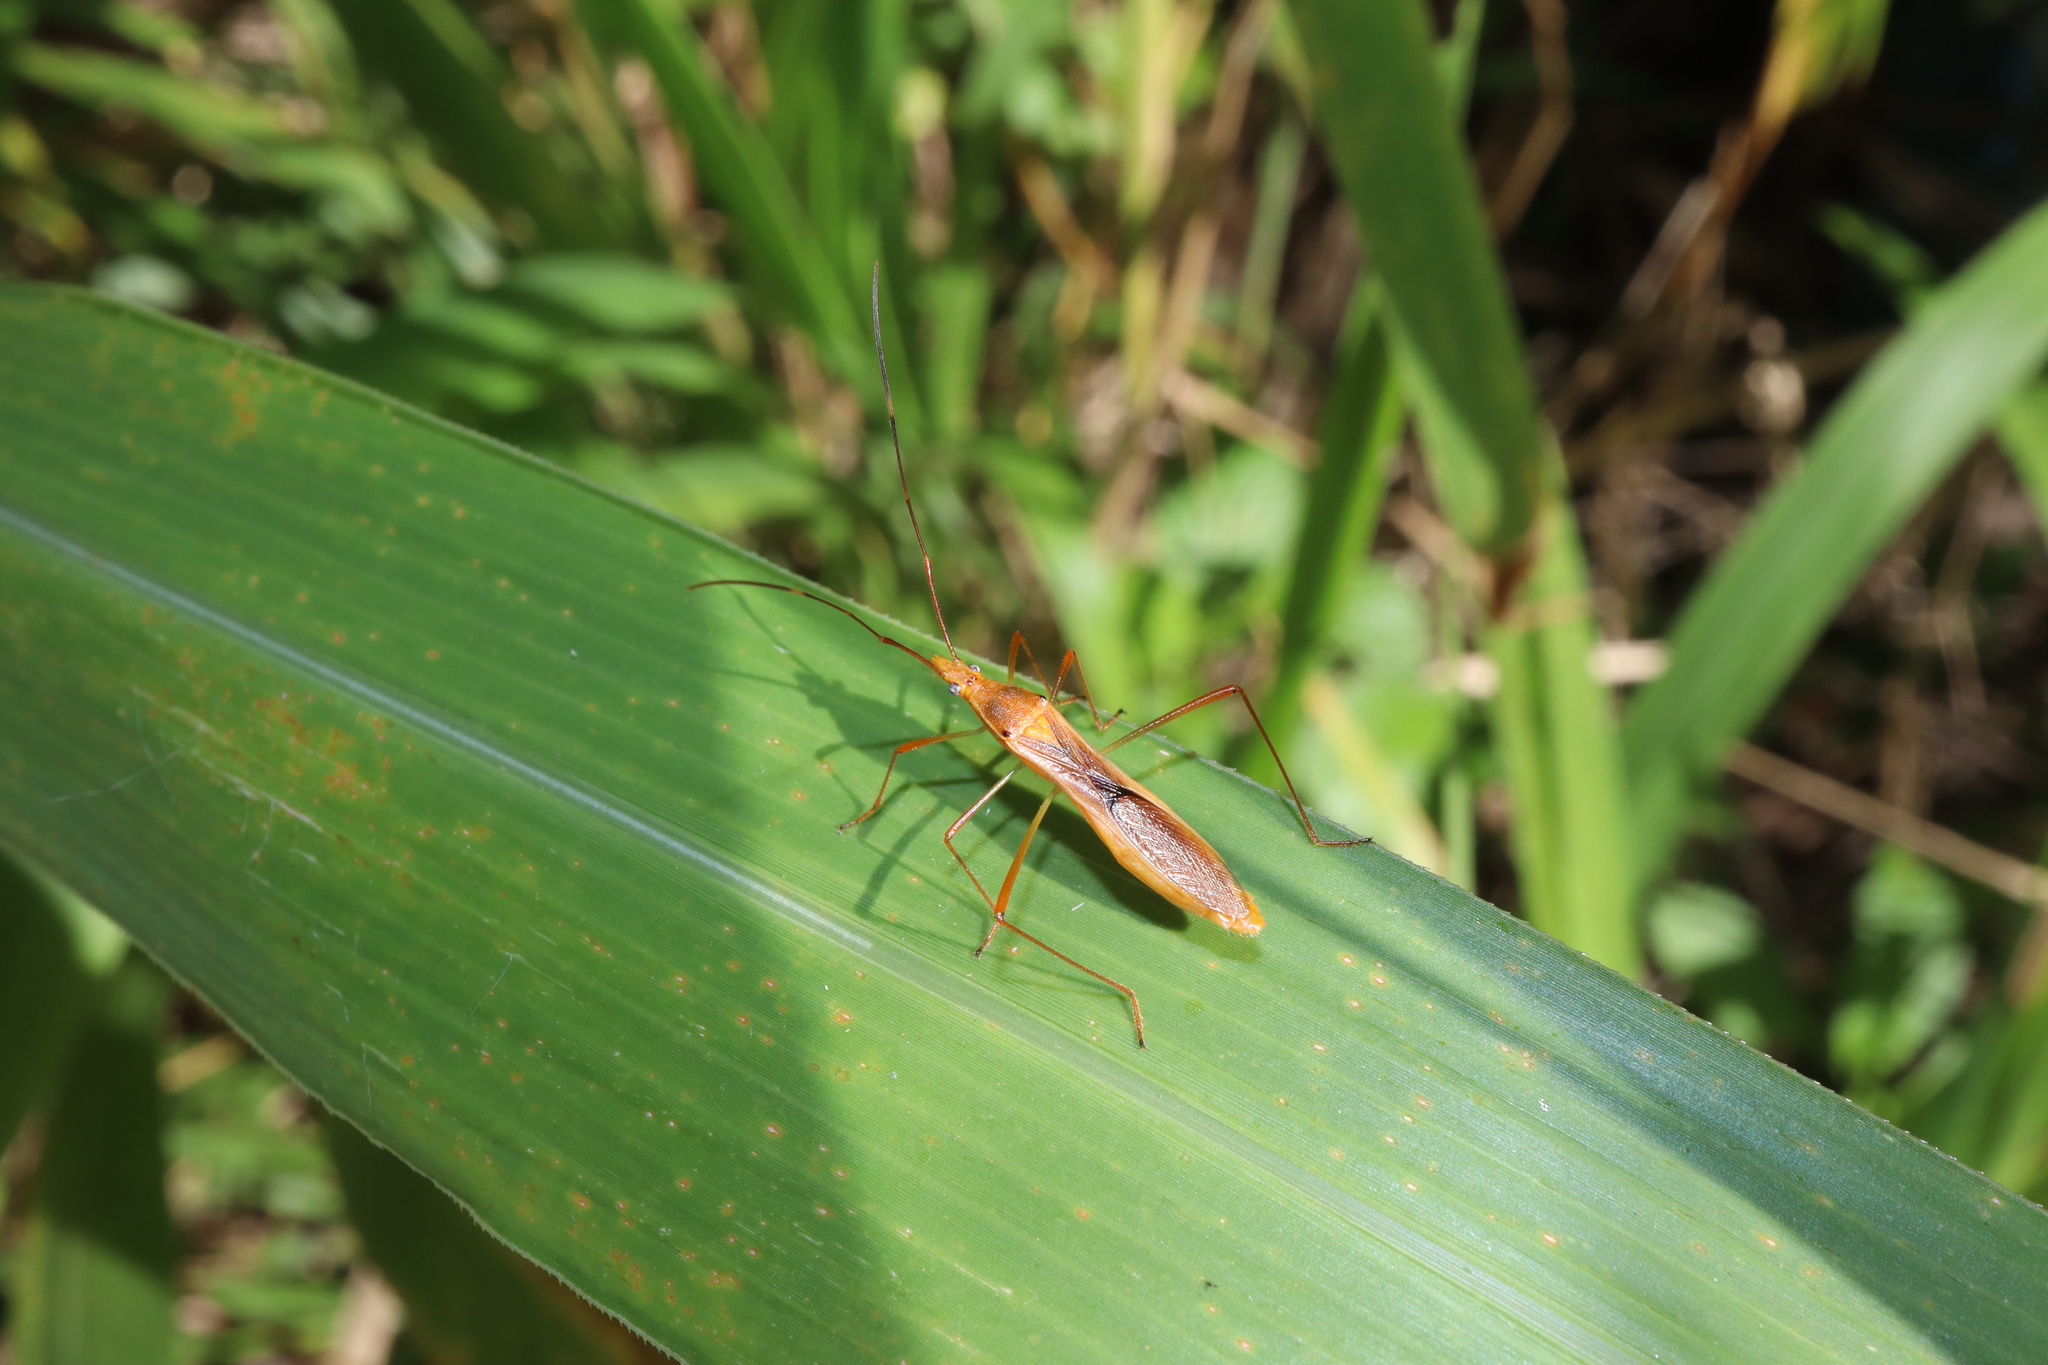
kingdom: Animalia
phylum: Arthropoda
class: Insecta
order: Hemiptera
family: Alydidae
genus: Leptocorisa
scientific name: Leptocorisa acuta
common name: Gandhi bug
